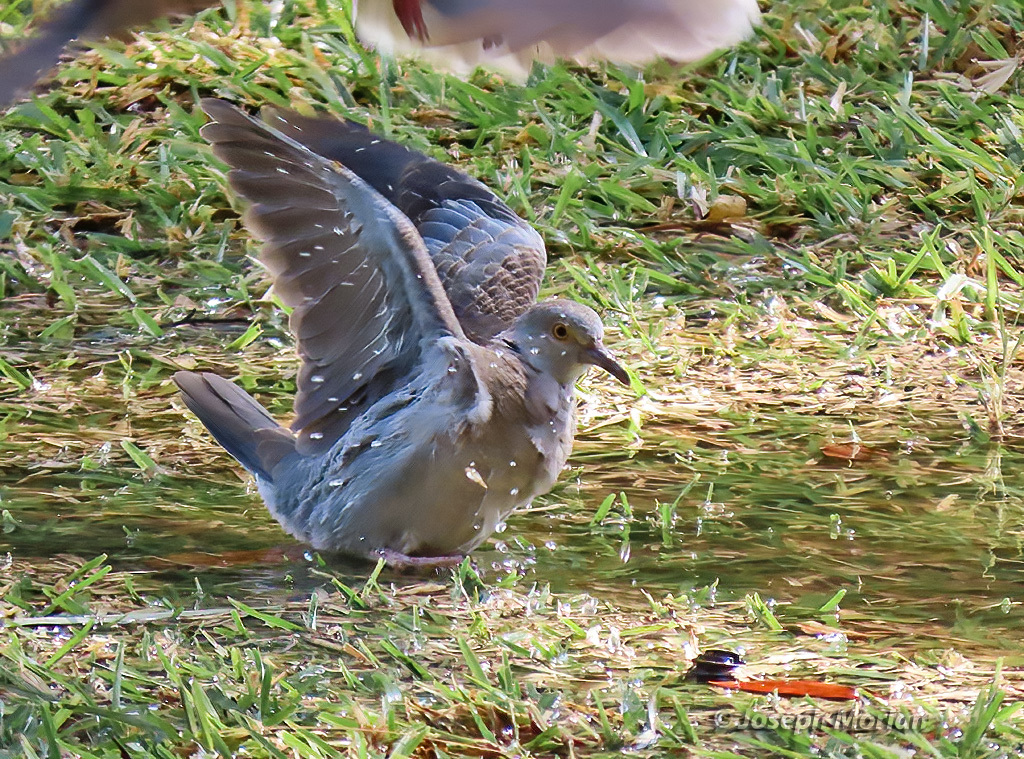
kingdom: Animalia
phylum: Chordata
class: Aves
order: Columbiformes
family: Columbidae
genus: Streptopelia
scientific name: Streptopelia decipiens
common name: Mourning collared dove
